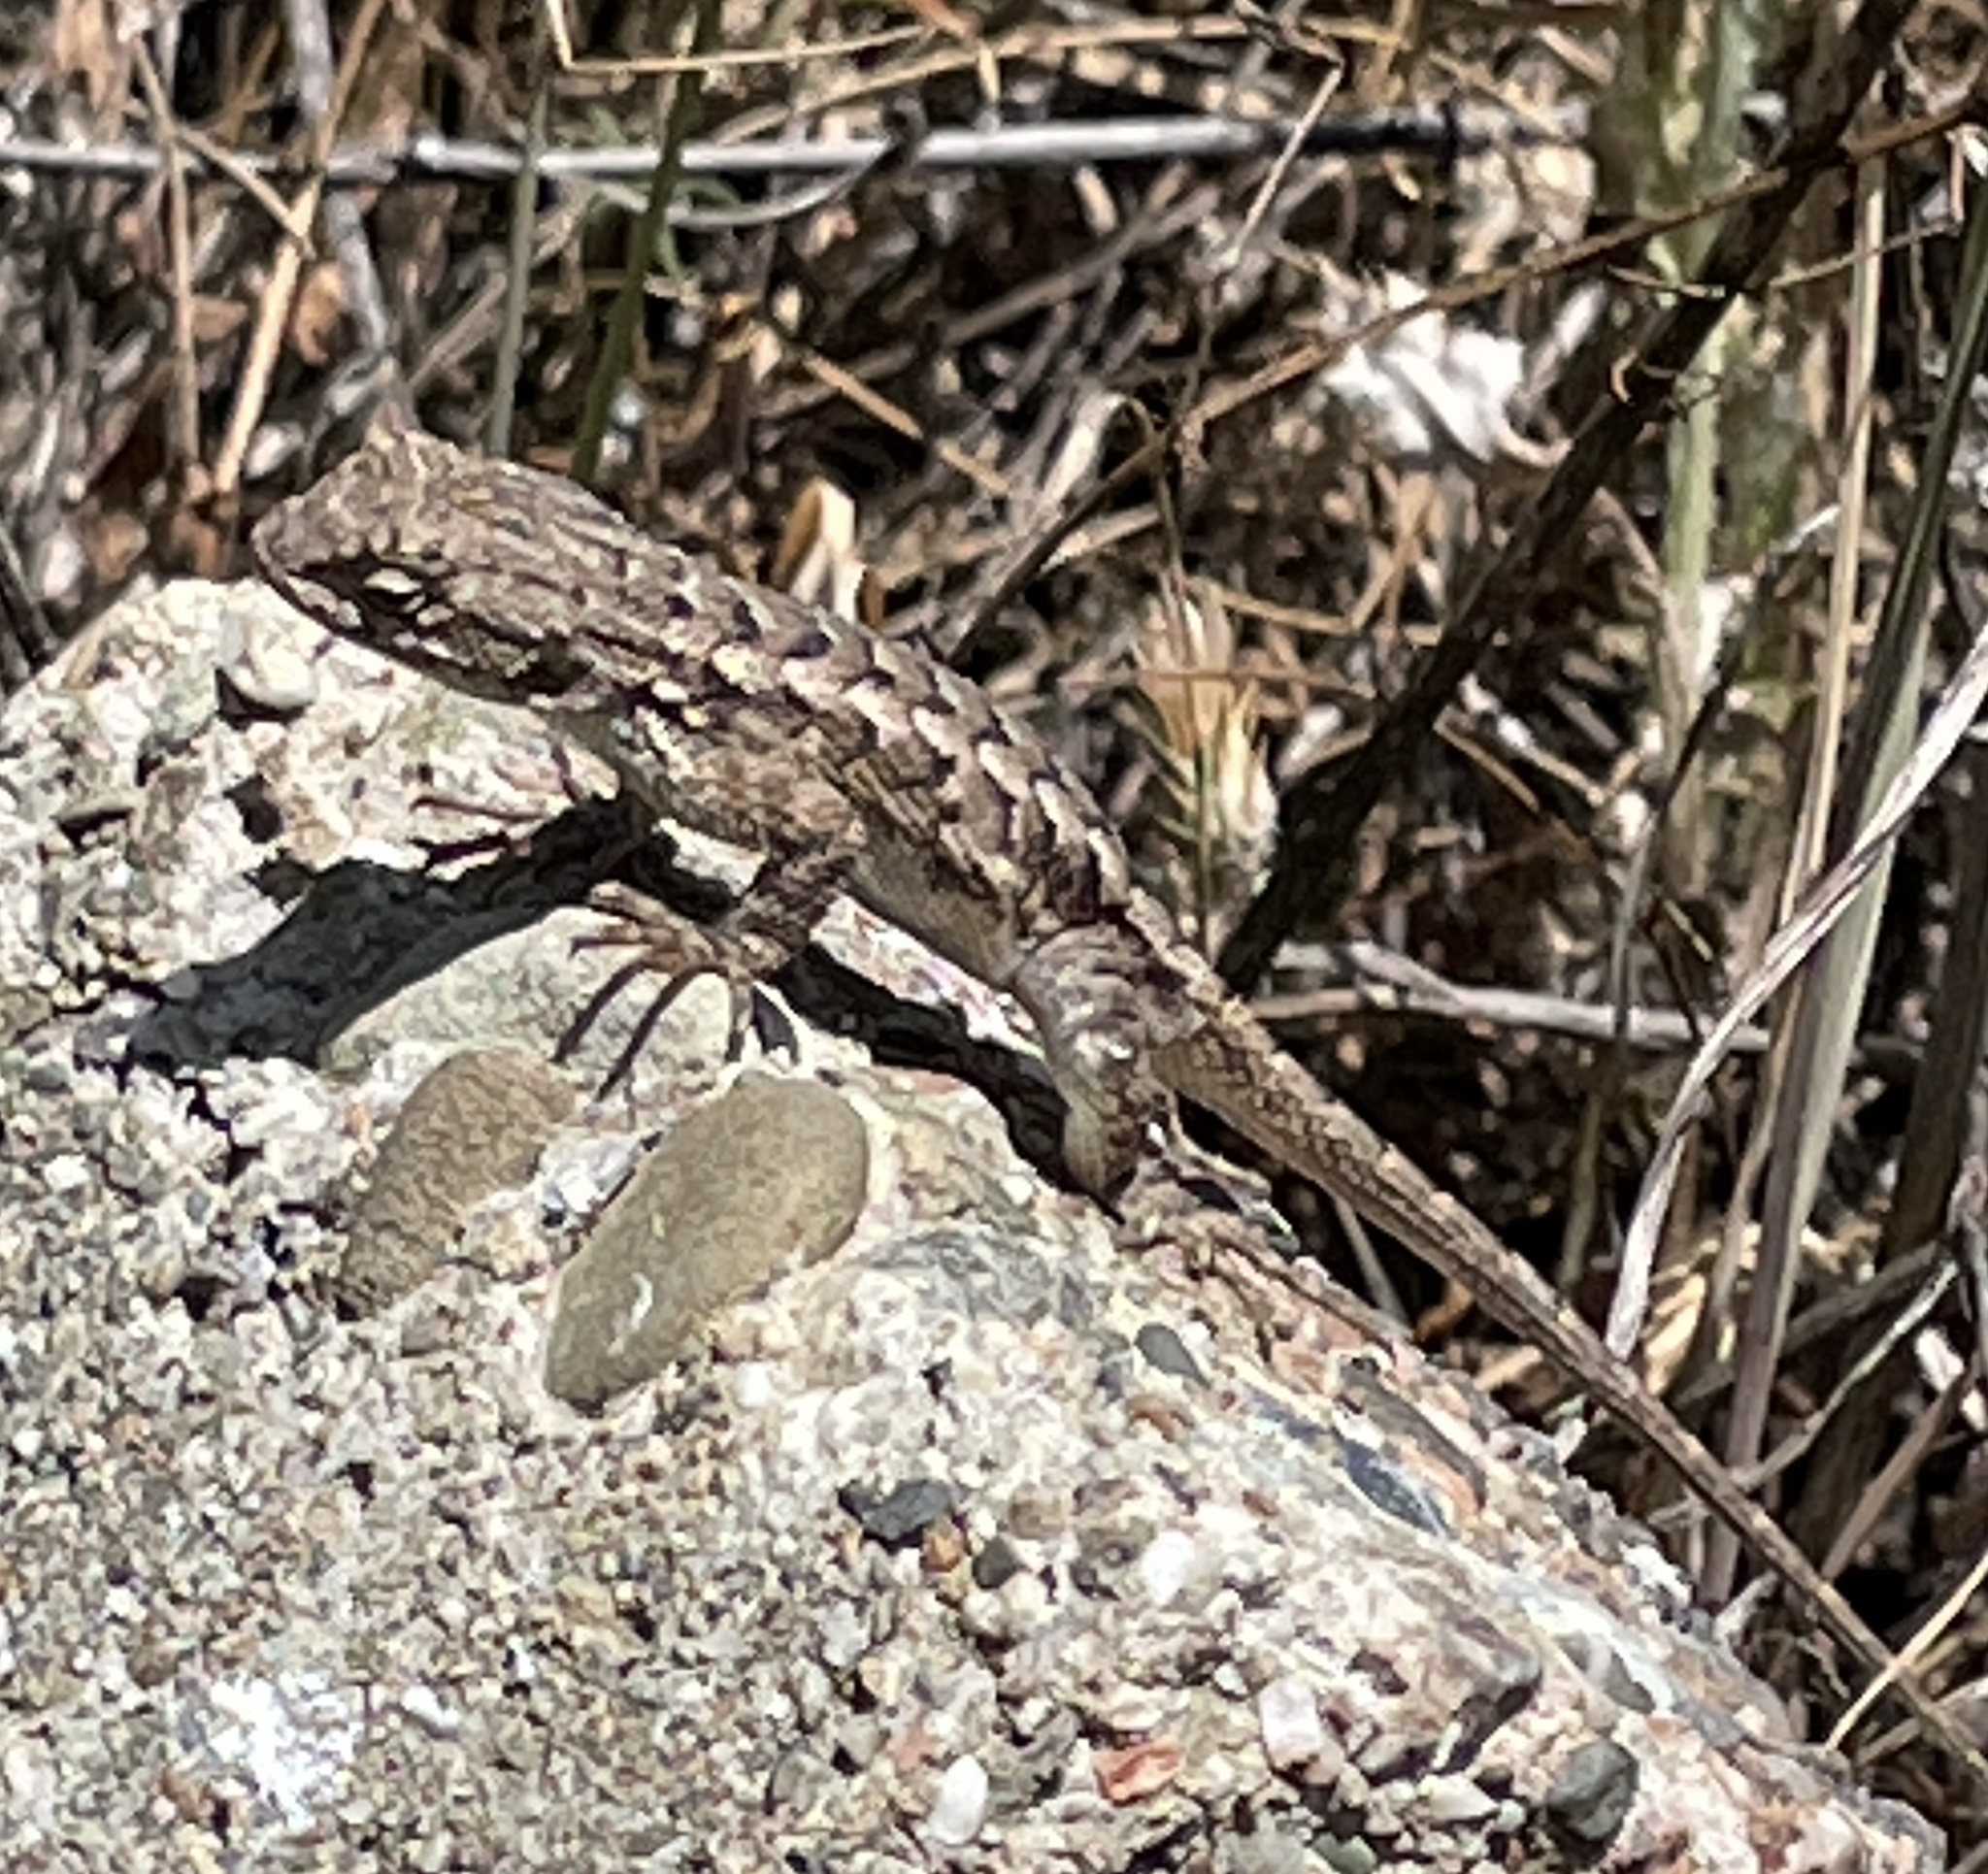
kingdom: Animalia
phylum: Chordata
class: Squamata
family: Phrynosomatidae
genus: Sceloporus
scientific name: Sceloporus occidentalis
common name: Western fence lizard
